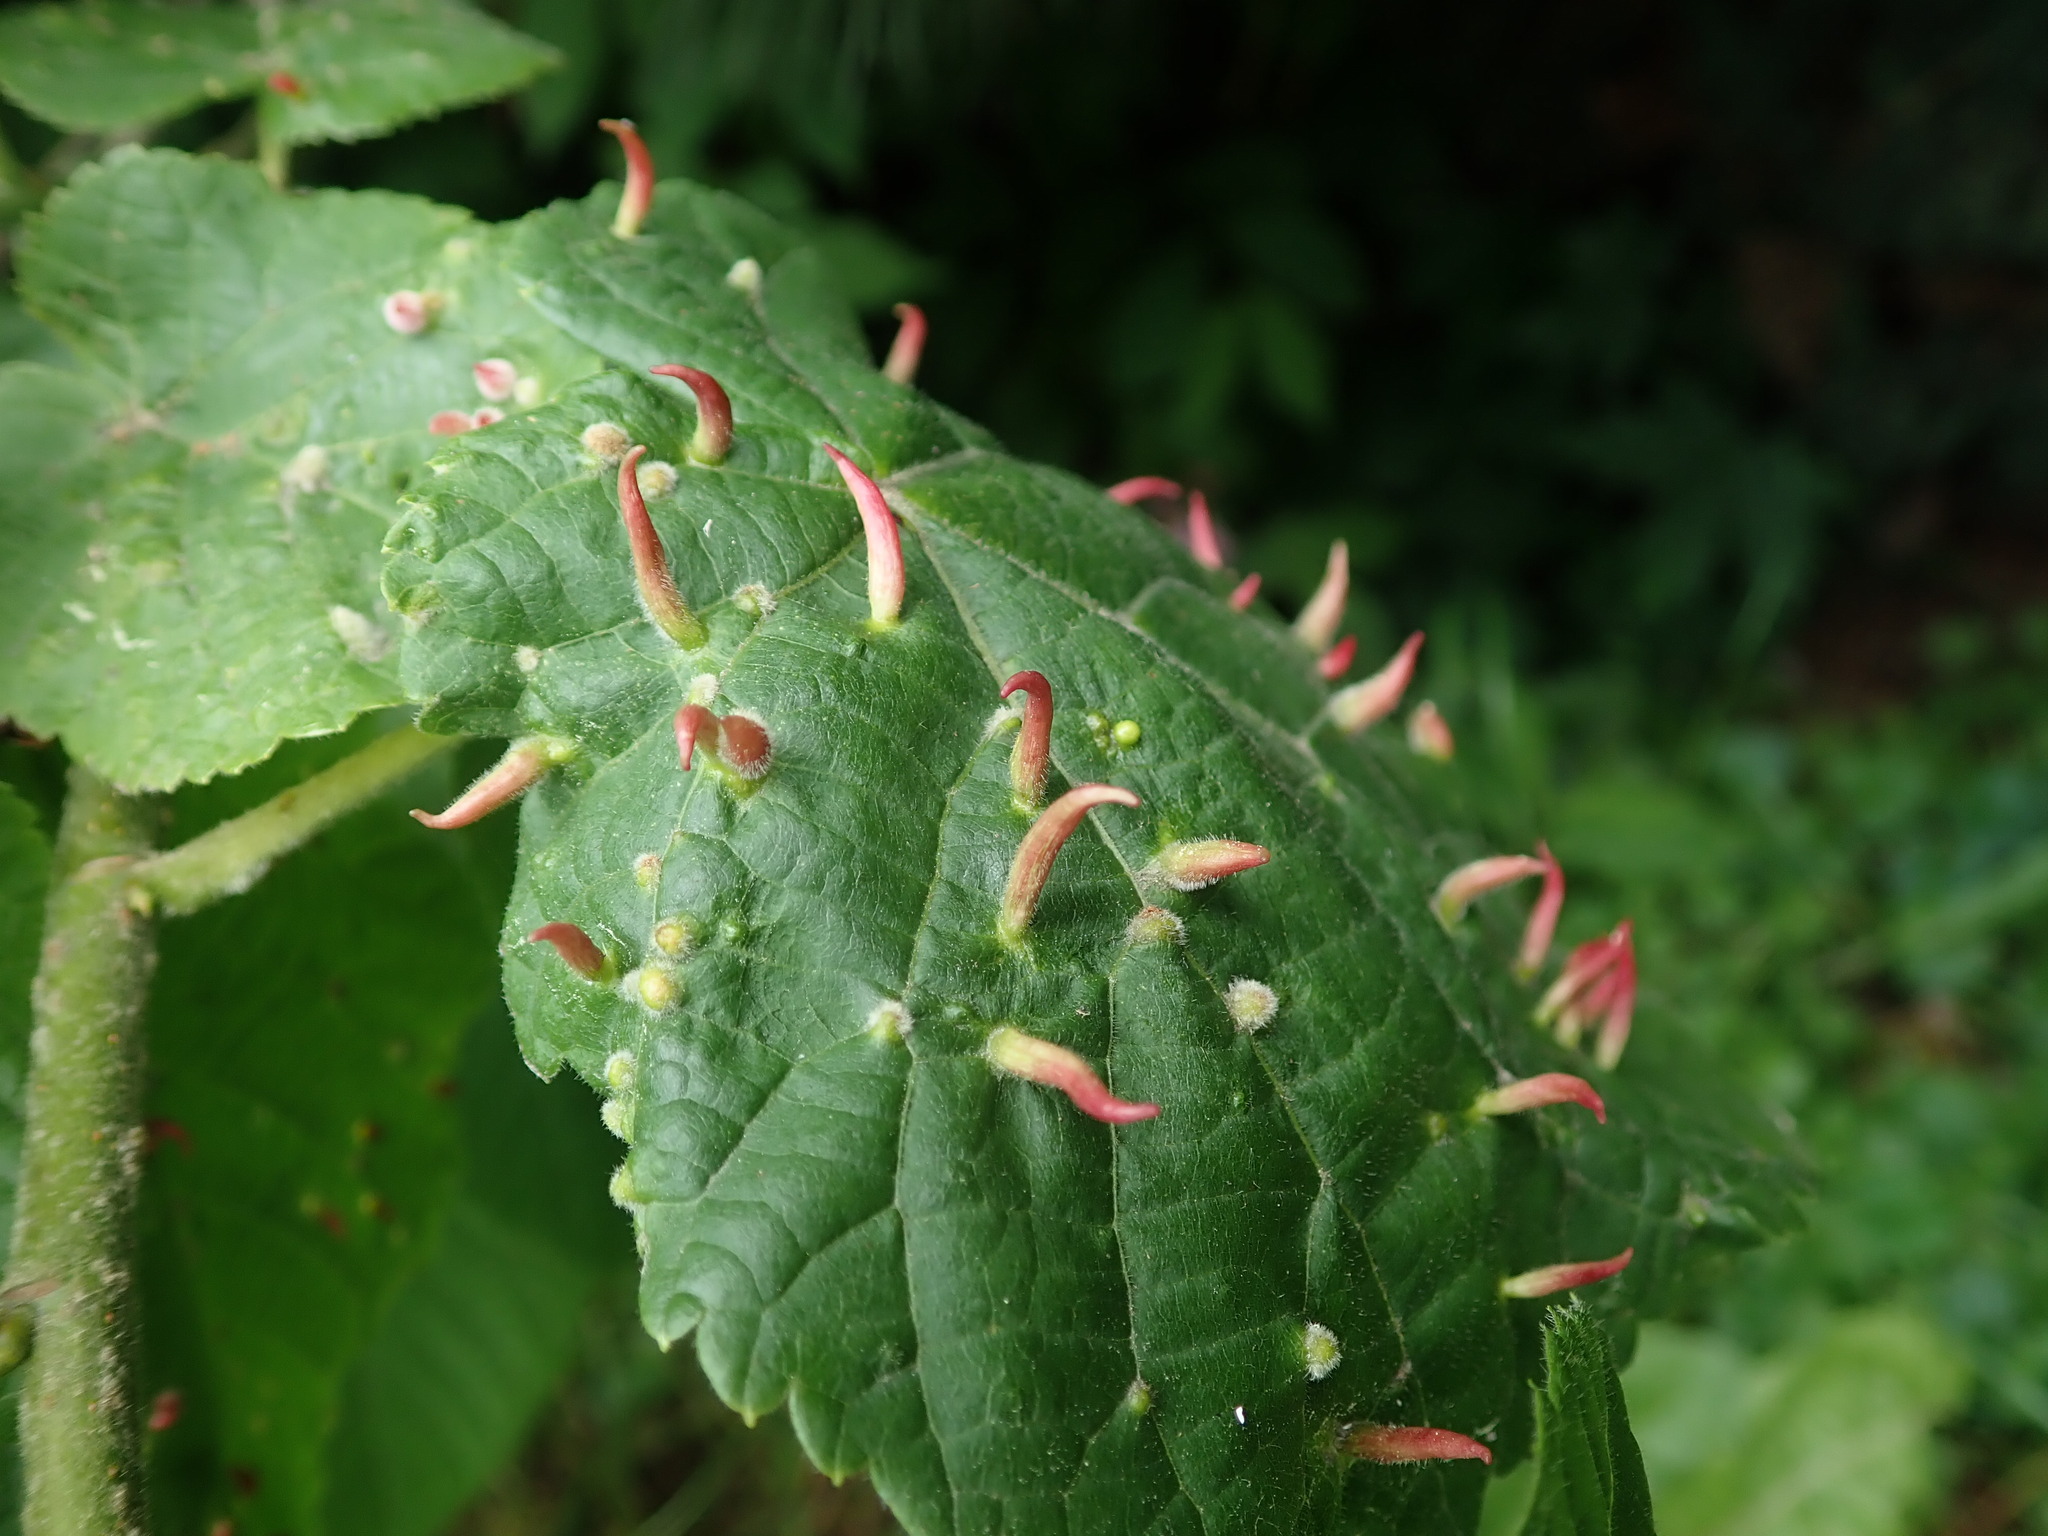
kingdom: Animalia
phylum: Arthropoda
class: Arachnida
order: Trombidiformes
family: Eriophyidae
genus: Eriophyes
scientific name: Eriophyes tiliae
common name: Red nail gall mite
